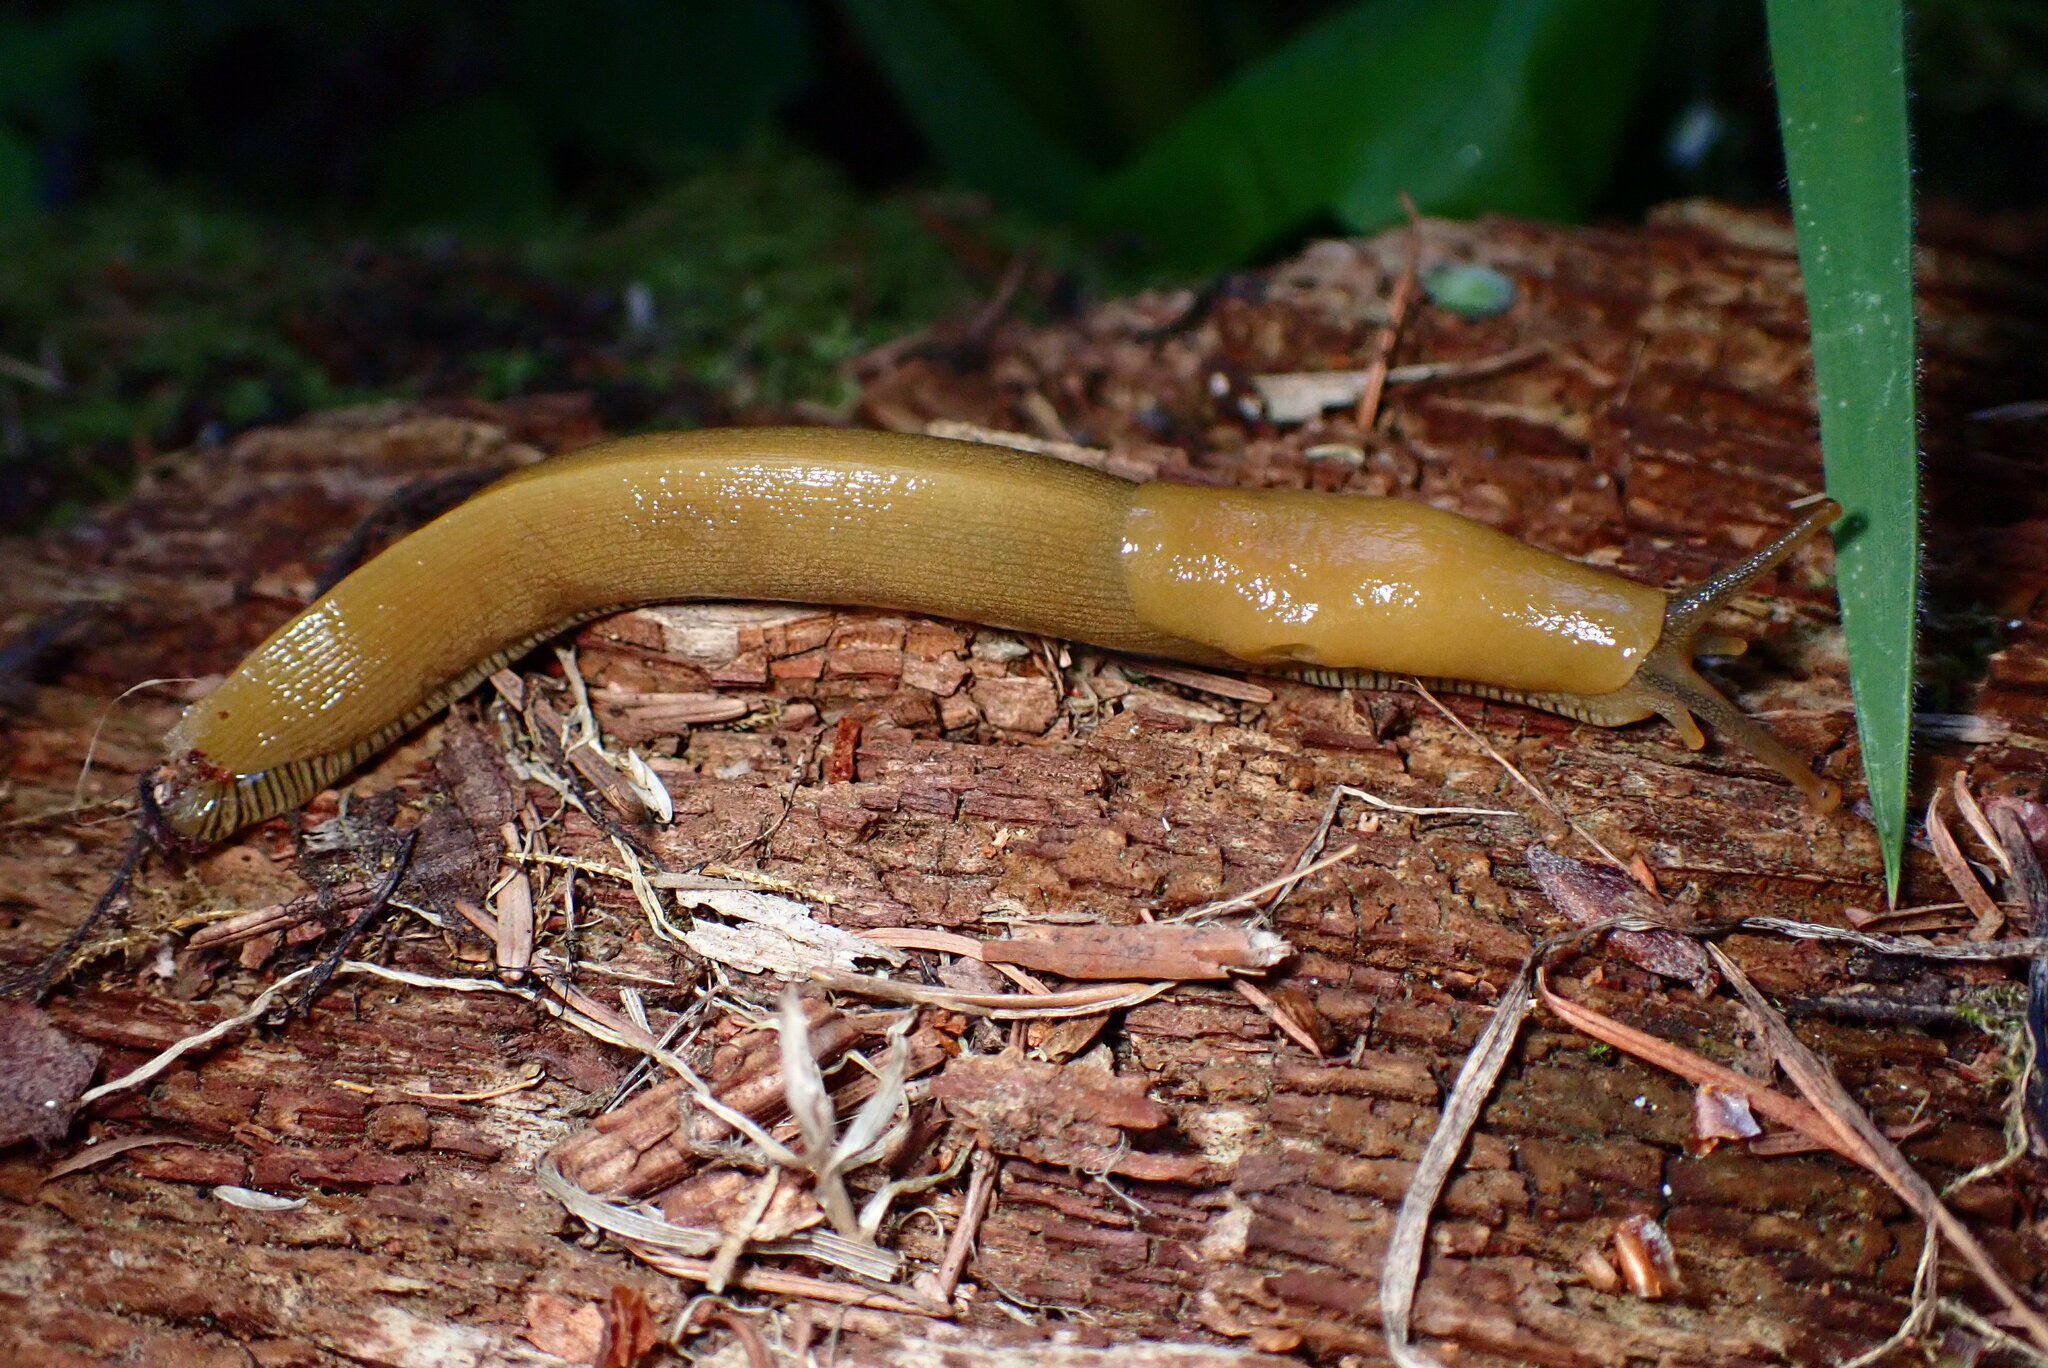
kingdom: Animalia
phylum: Mollusca
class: Gastropoda
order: Stylommatophora
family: Ariolimacidae
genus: Ariolimax
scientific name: Ariolimax buttoni
